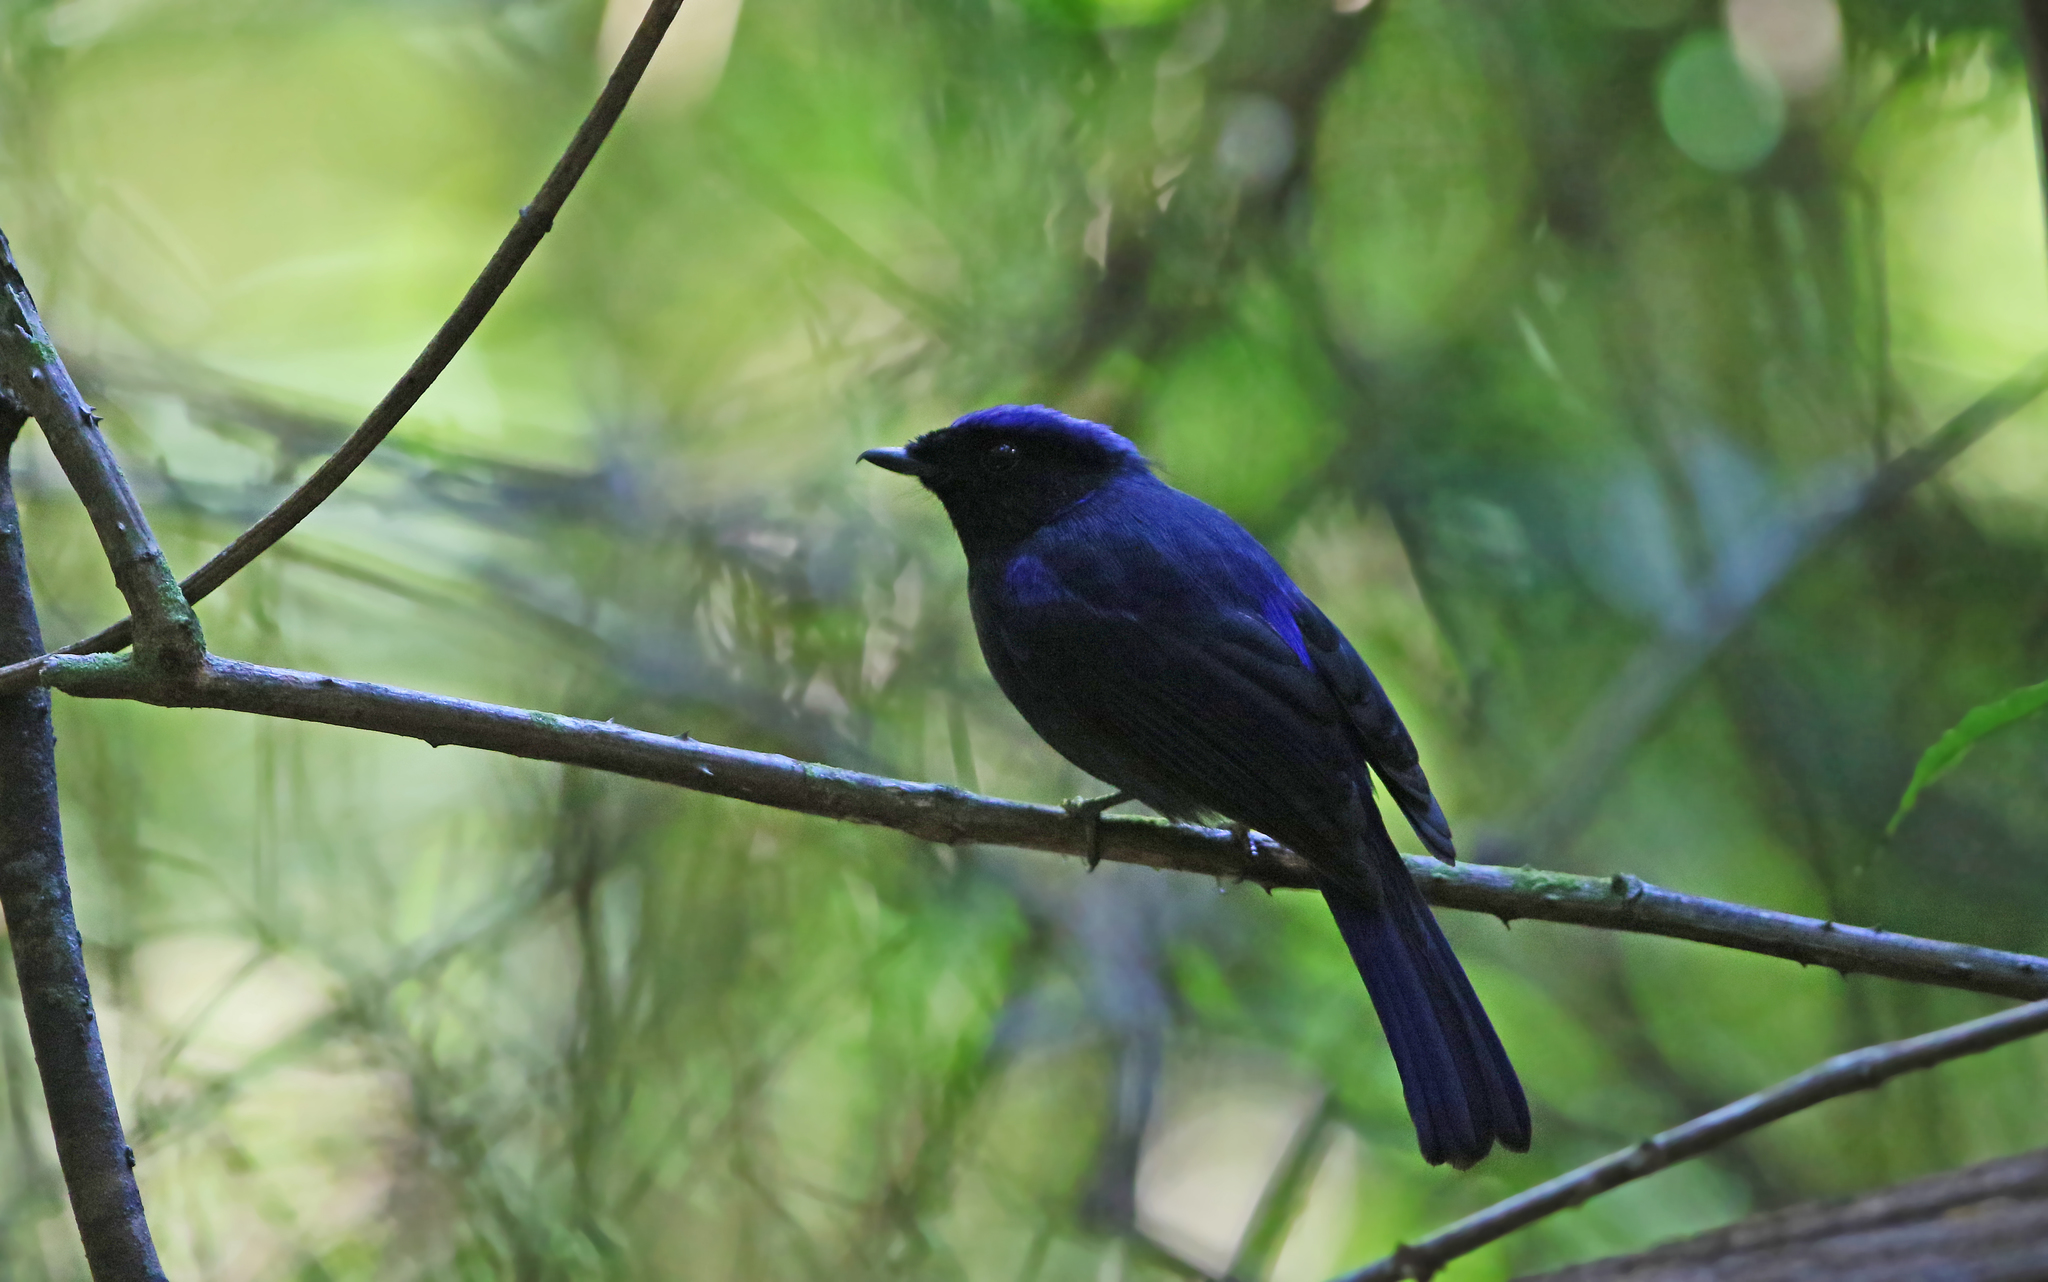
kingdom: Animalia
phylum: Chordata
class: Aves
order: Passeriformes
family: Muscicapidae
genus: Niltava
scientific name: Niltava grandis
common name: Large niltava
